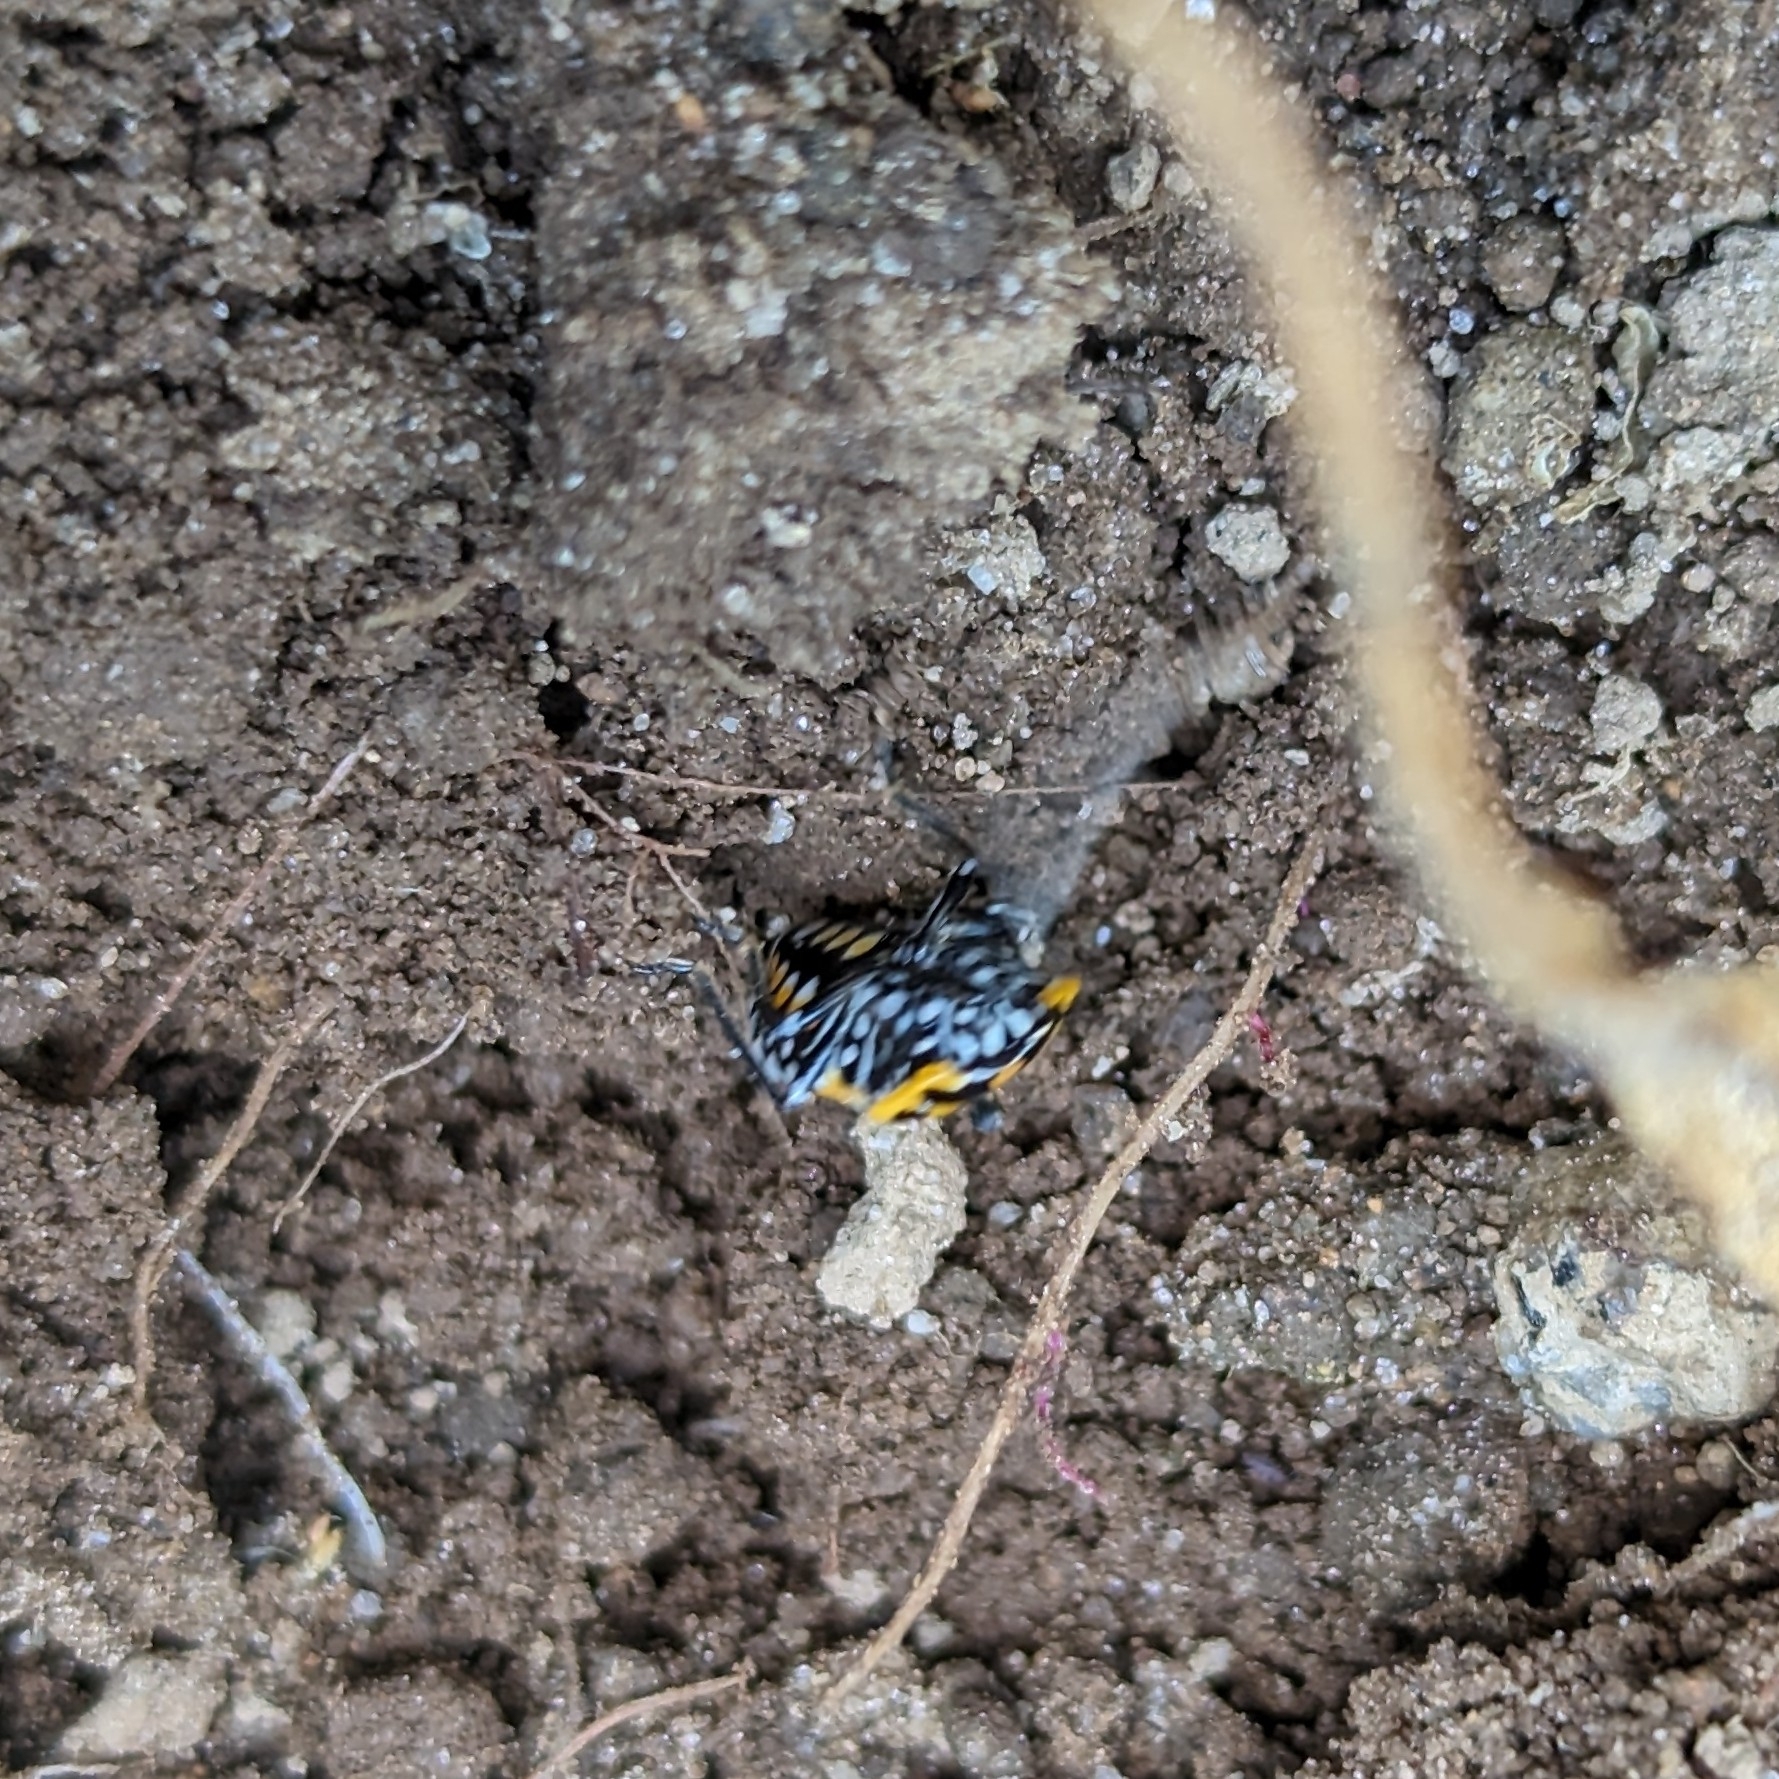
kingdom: Animalia
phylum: Arthropoda
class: Insecta
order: Hemiptera
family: Pentatomidae
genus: Murgantia
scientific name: Murgantia histrionica
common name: Harlequin bug
